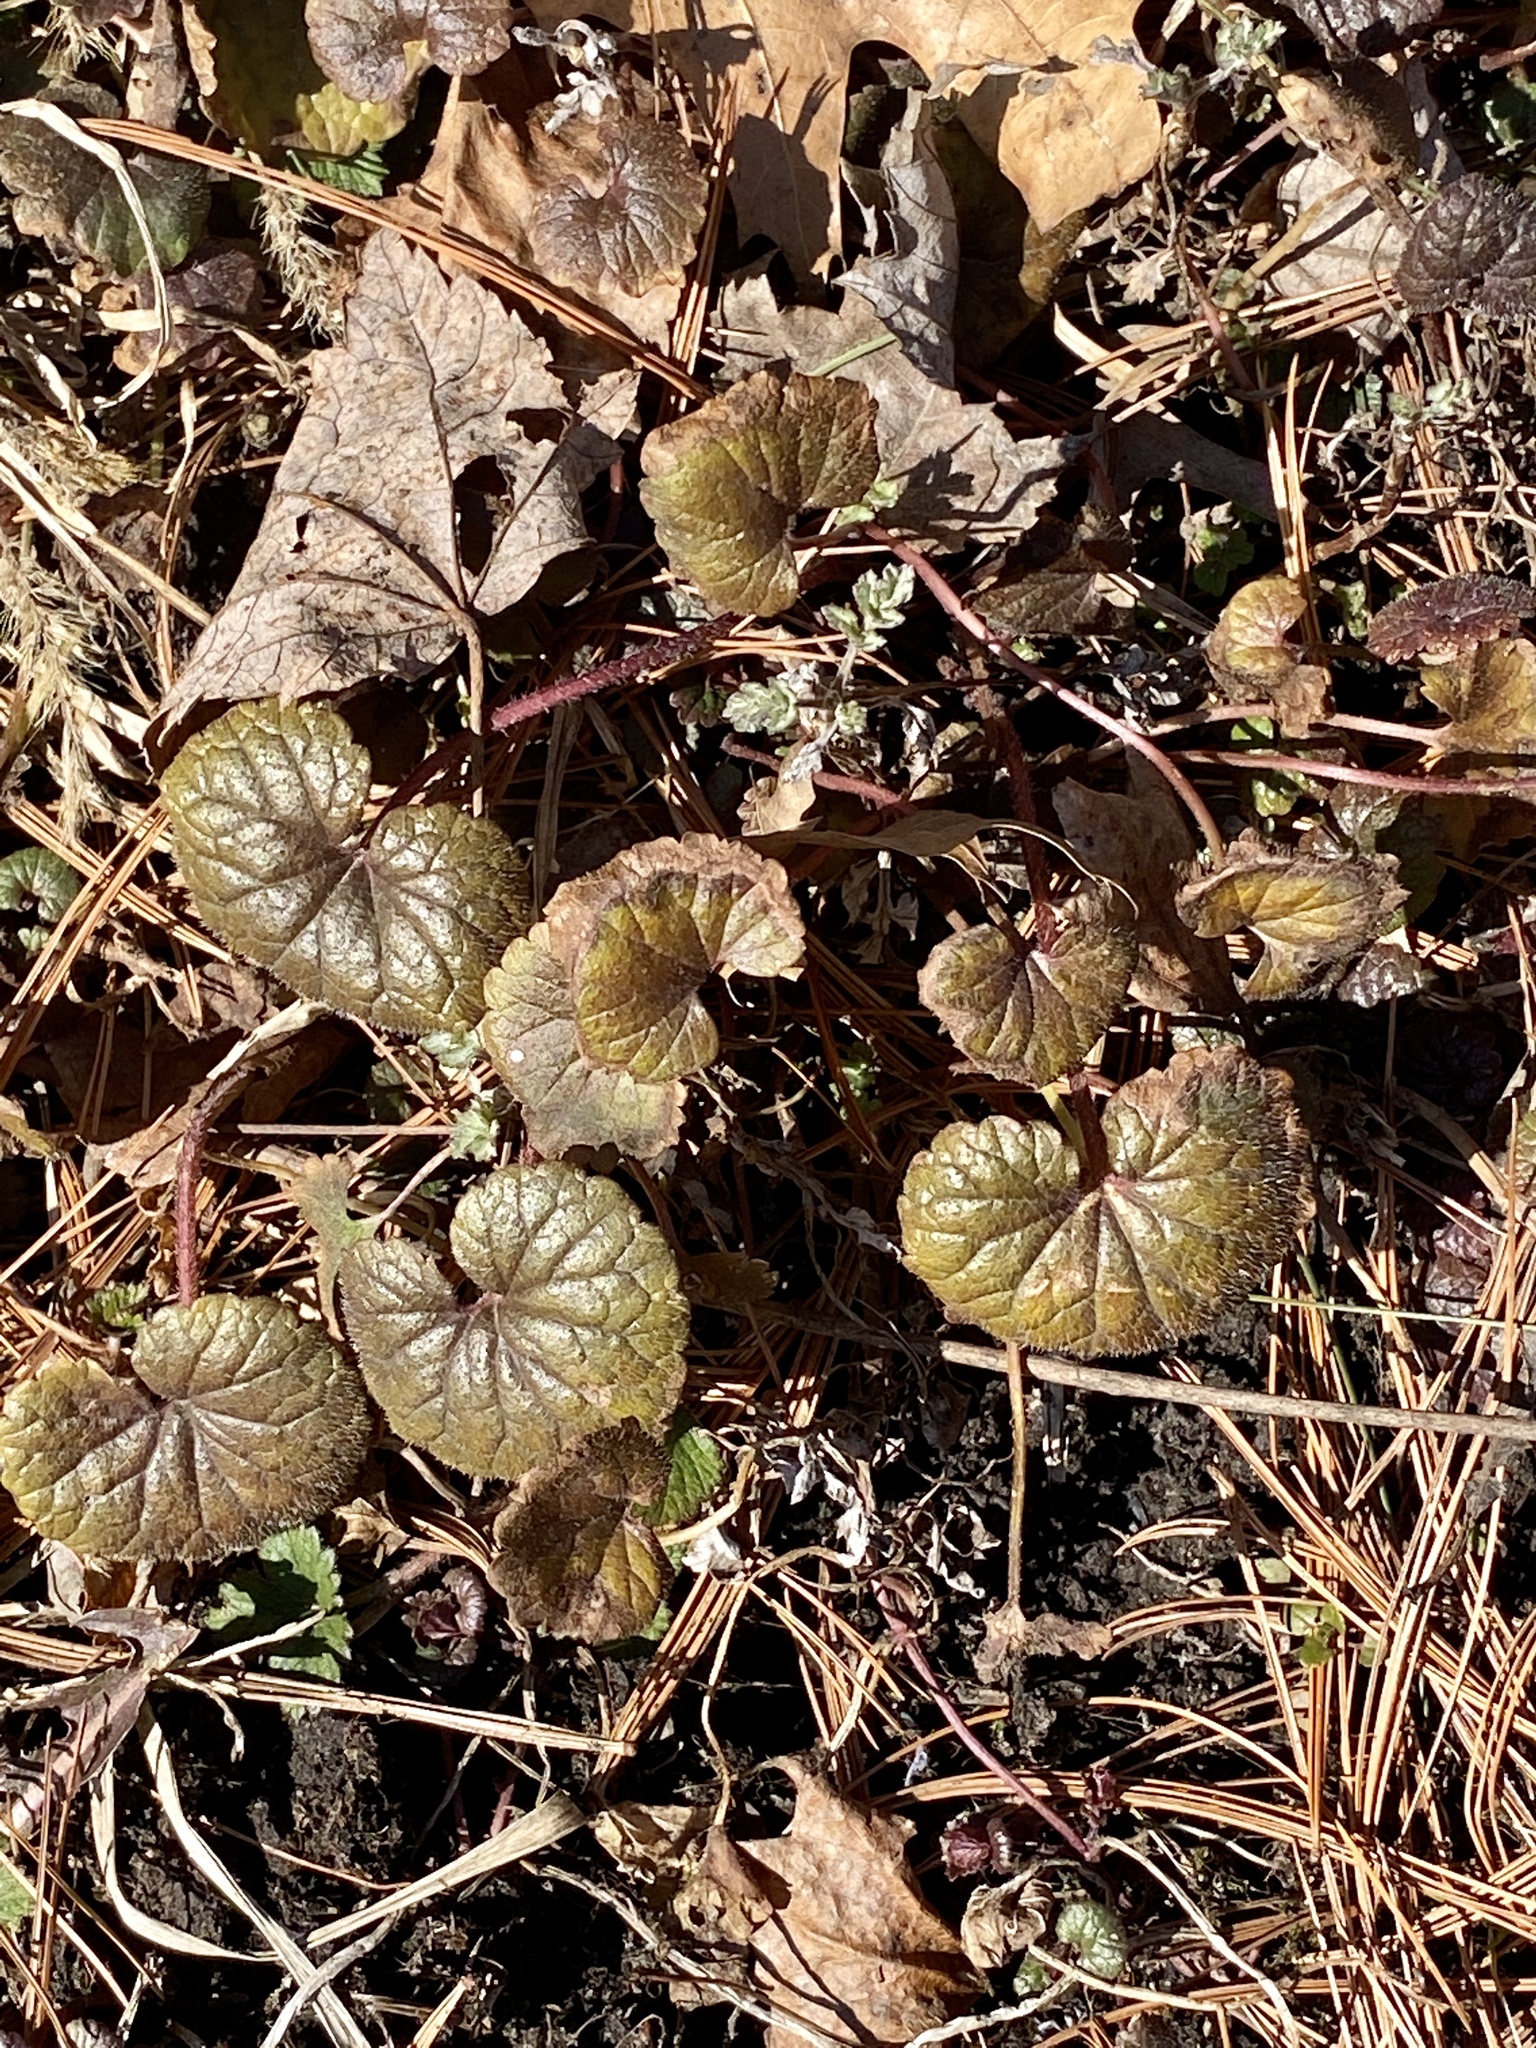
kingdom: Plantae
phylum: Tracheophyta
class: Magnoliopsida
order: Lamiales
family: Lamiaceae
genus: Glechoma
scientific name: Glechoma hederacea
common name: Ground ivy
